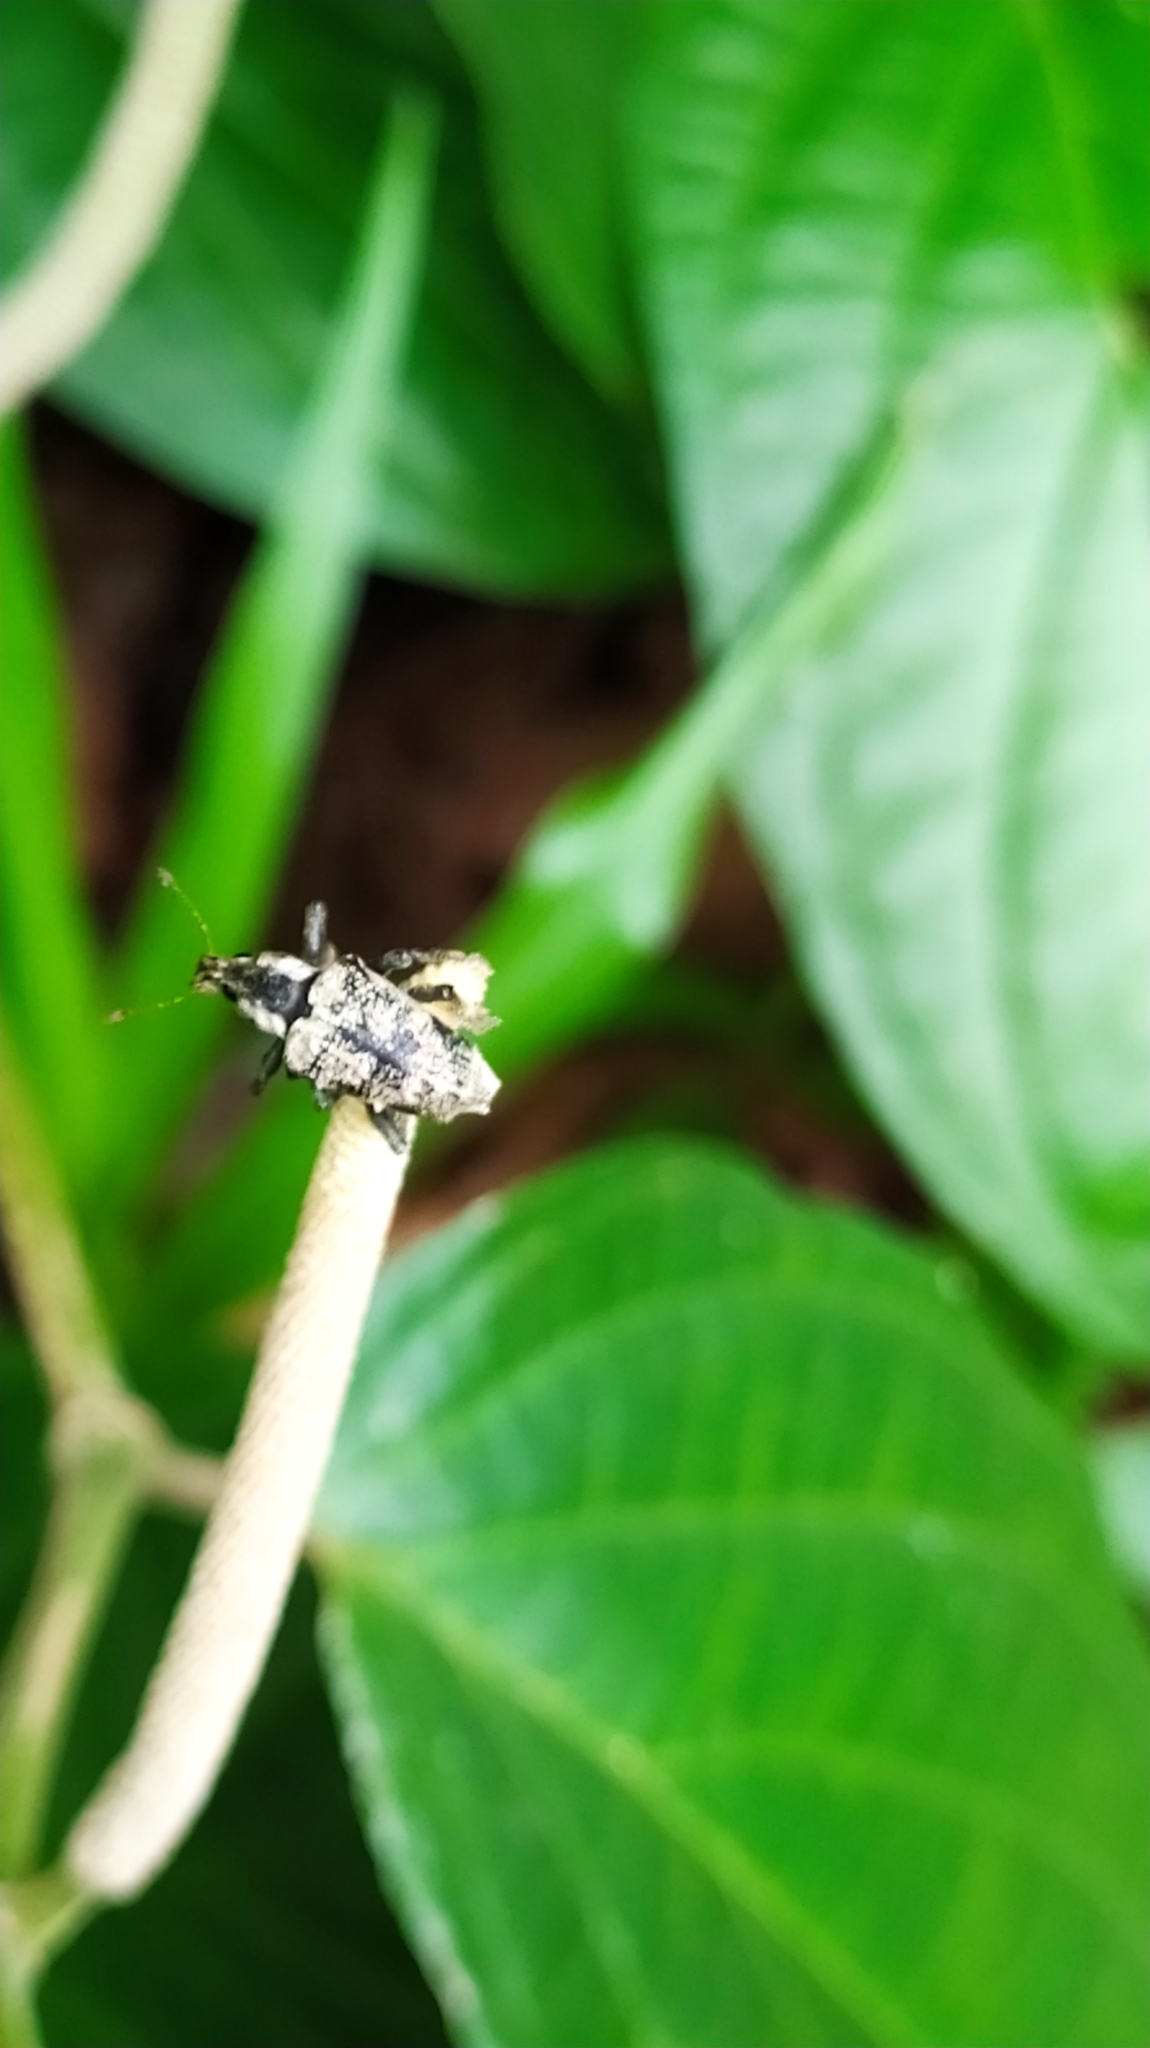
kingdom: Animalia
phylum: Arthropoda
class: Insecta
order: Coleoptera
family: Curculionidae
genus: Phaedropus
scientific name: Phaedropus candidus
